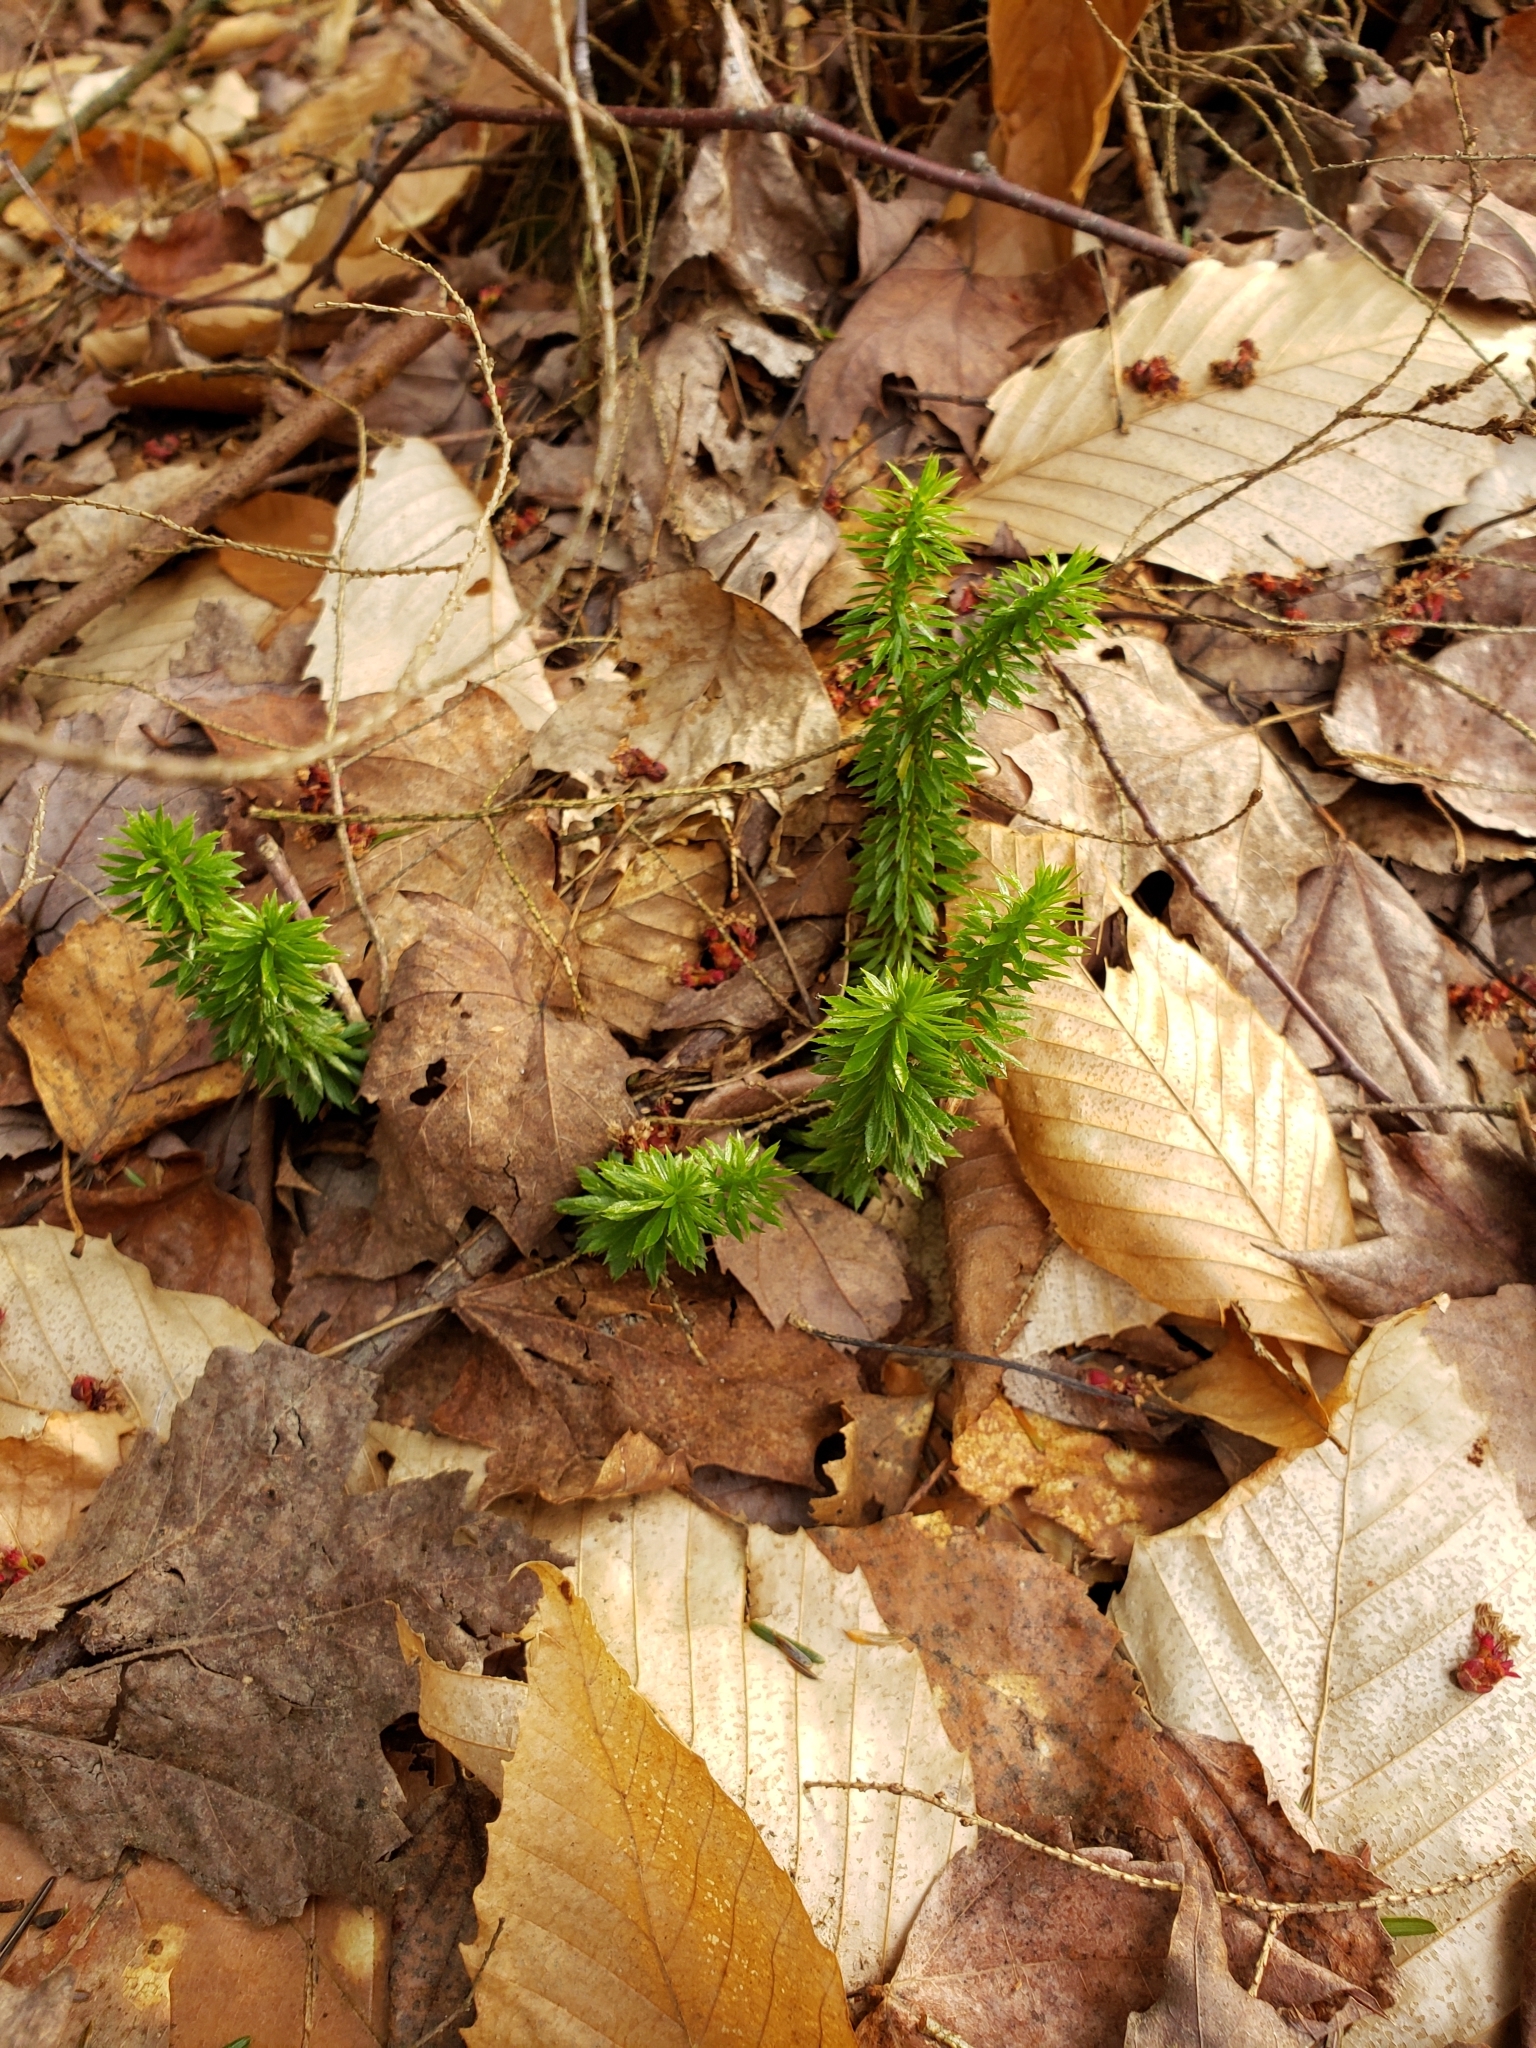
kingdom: Plantae
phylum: Tracheophyta
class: Lycopodiopsida
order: Lycopodiales
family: Lycopodiaceae
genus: Huperzia
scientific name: Huperzia lucidula
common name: Shining clubmoss
